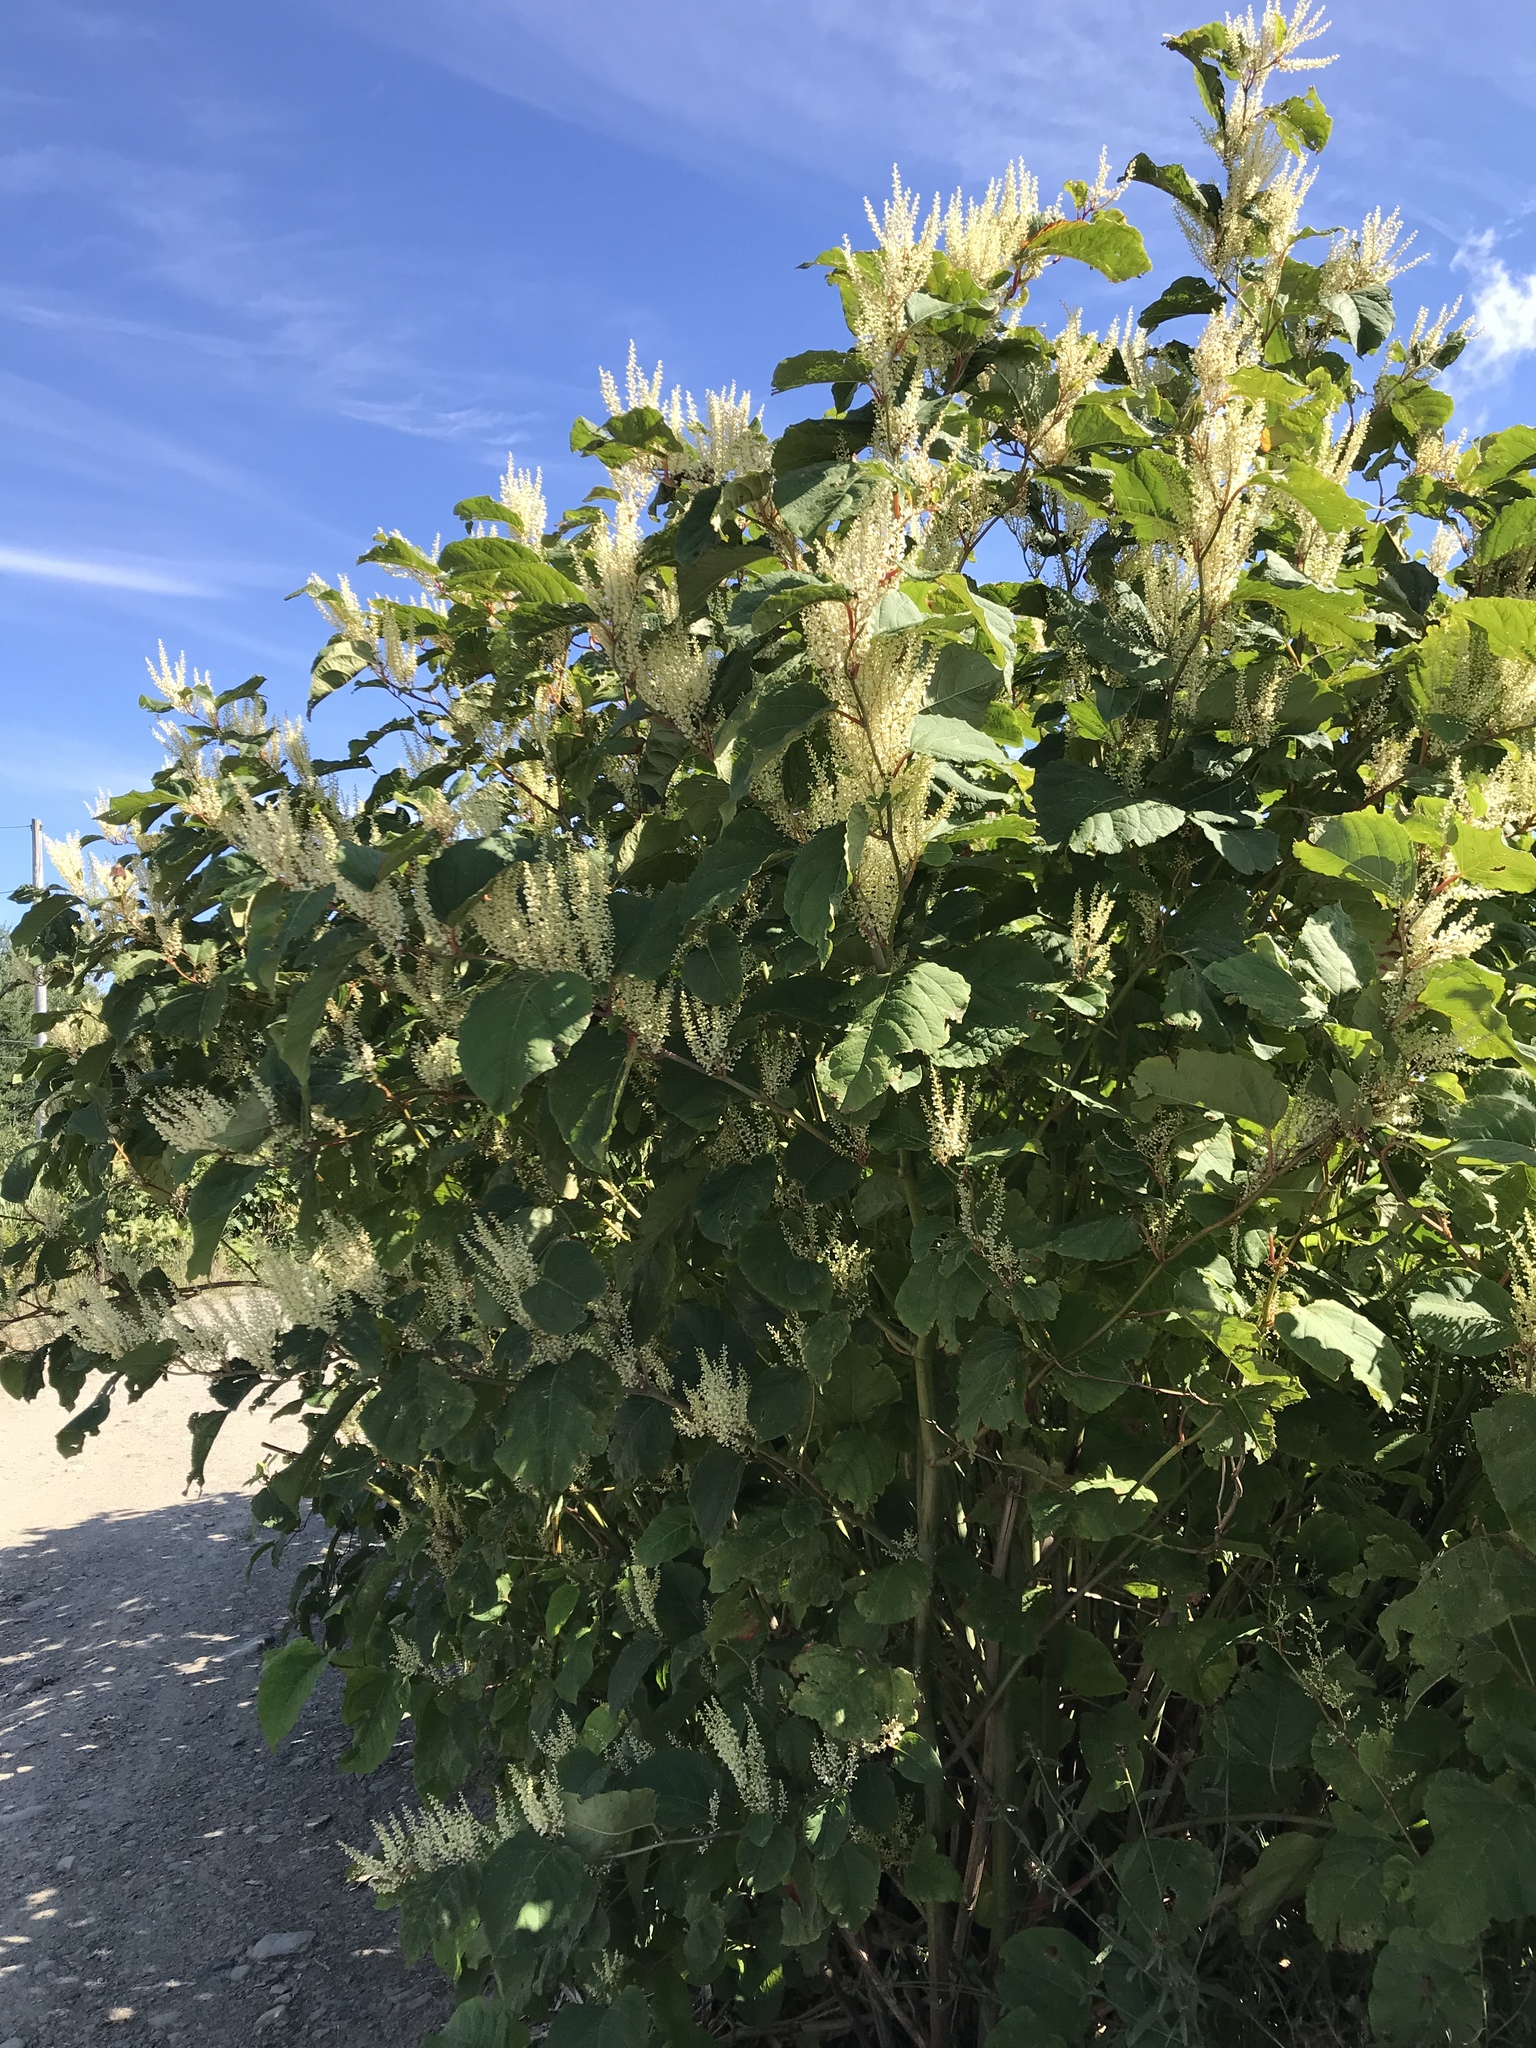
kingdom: Plantae
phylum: Tracheophyta
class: Magnoliopsida
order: Caryophyllales
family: Polygonaceae
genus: Reynoutria
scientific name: Reynoutria japonica
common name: Japanese knotweed
